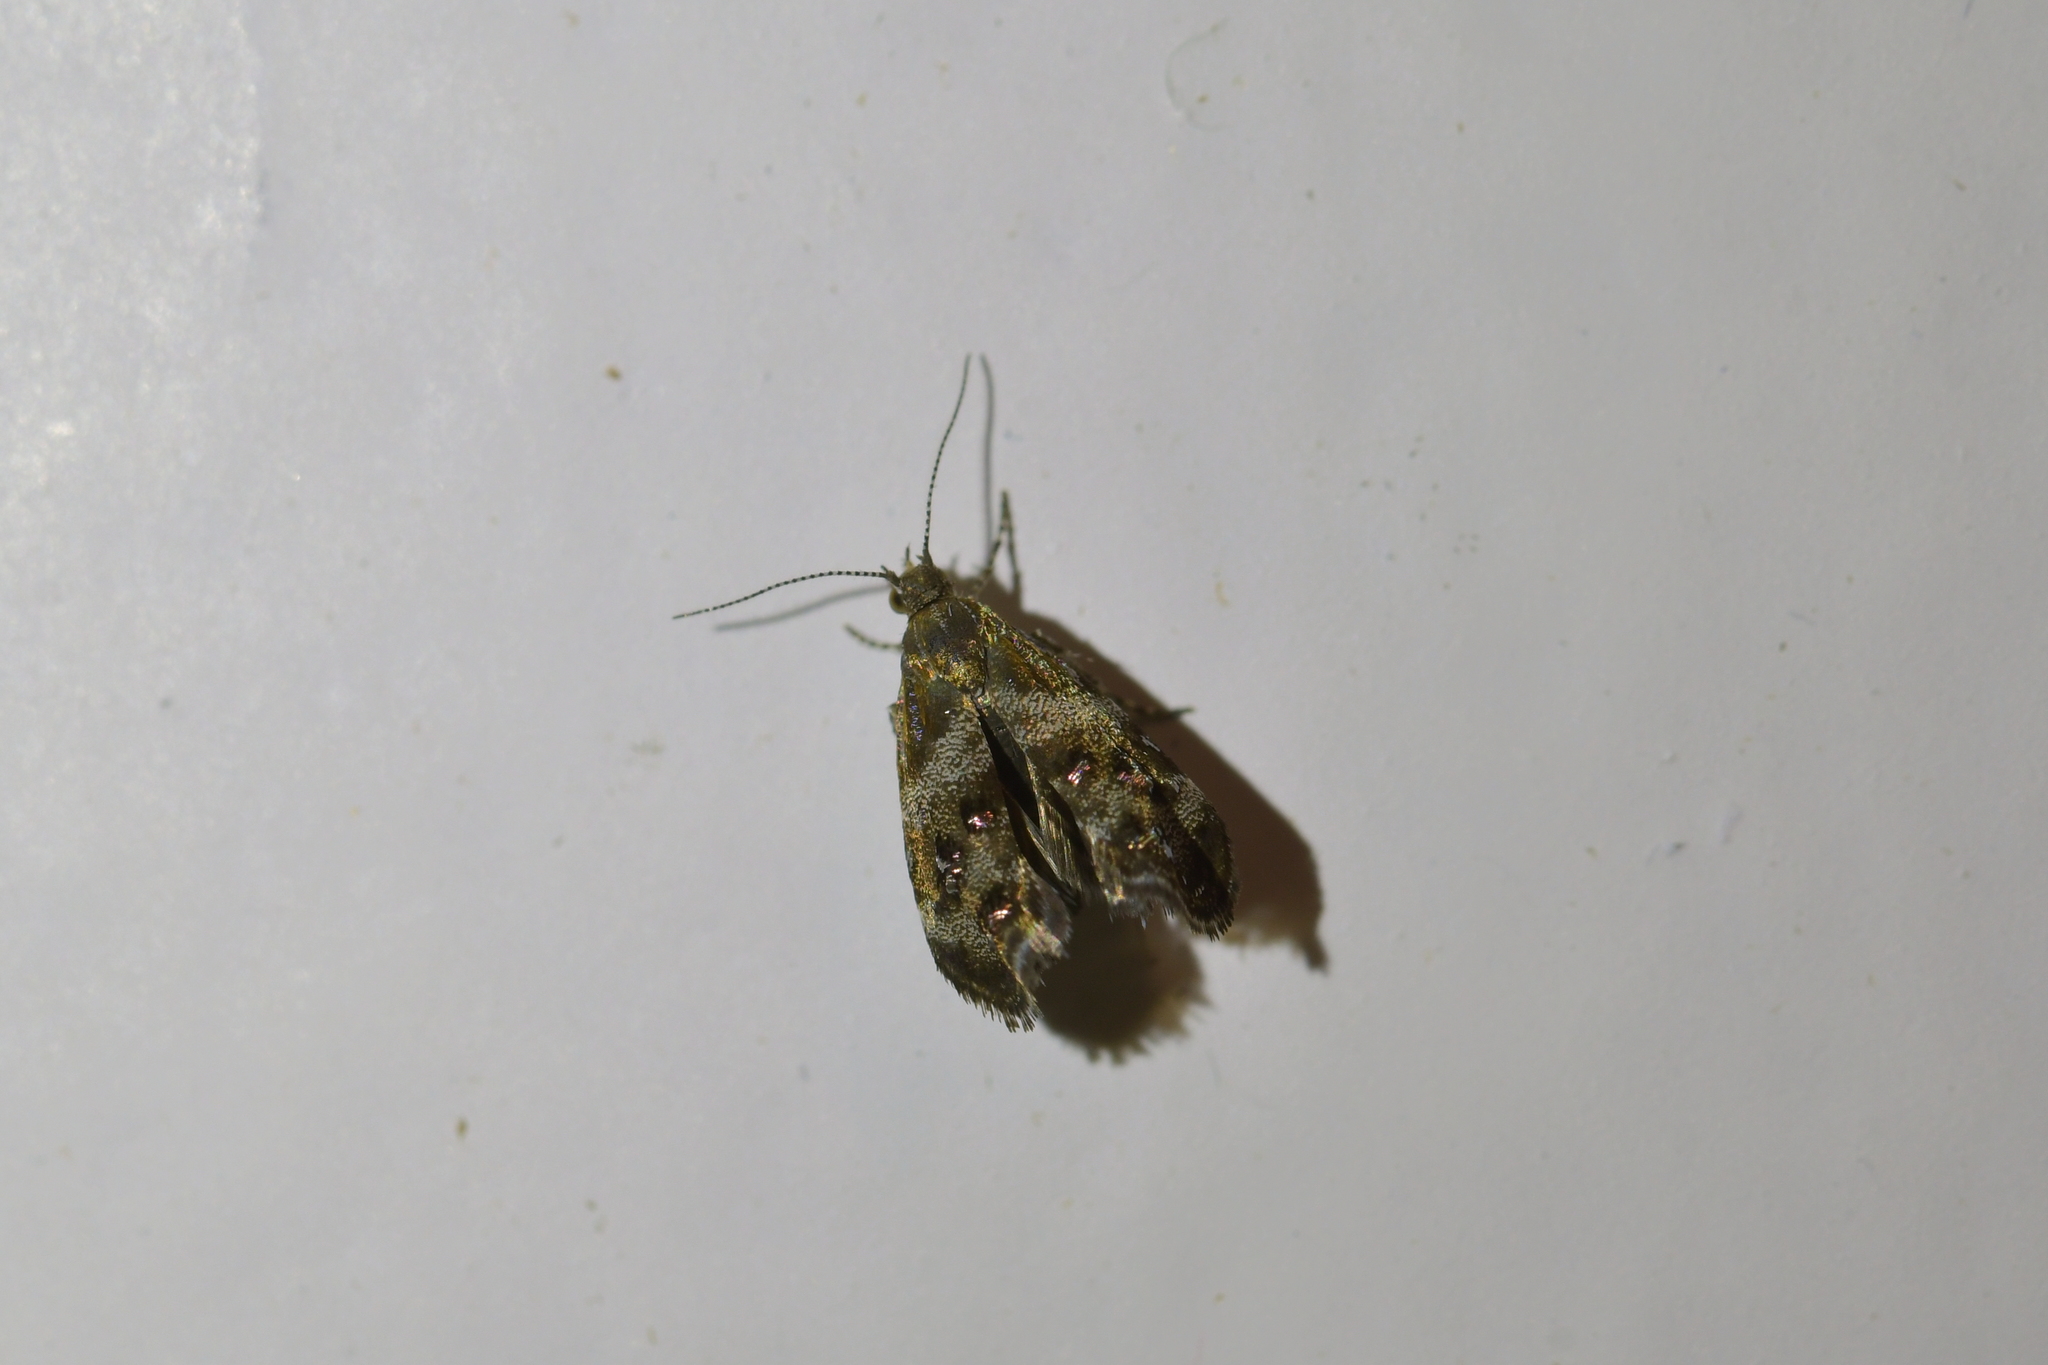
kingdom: Animalia
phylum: Arthropoda
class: Insecta
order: Lepidoptera
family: Choreutidae
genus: Tebenna
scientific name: Tebenna micalis
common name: Vagrant twitcher
